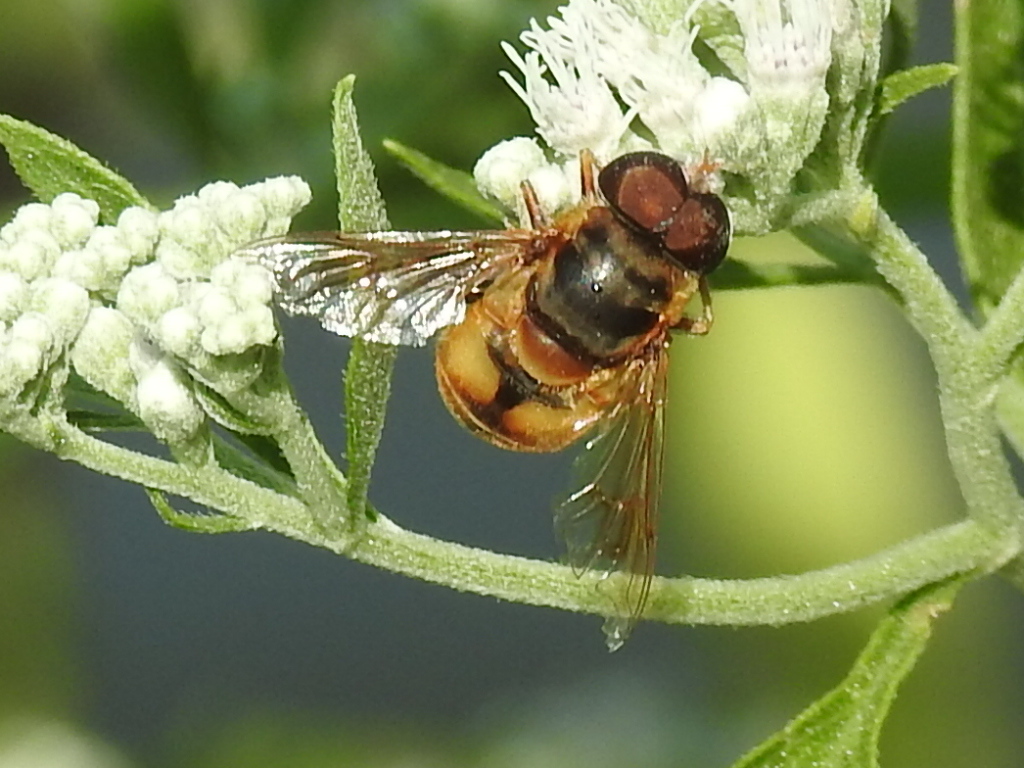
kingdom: Animalia
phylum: Arthropoda
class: Insecta
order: Diptera
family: Syrphidae
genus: Palpada
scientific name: Palpada vinetorum
